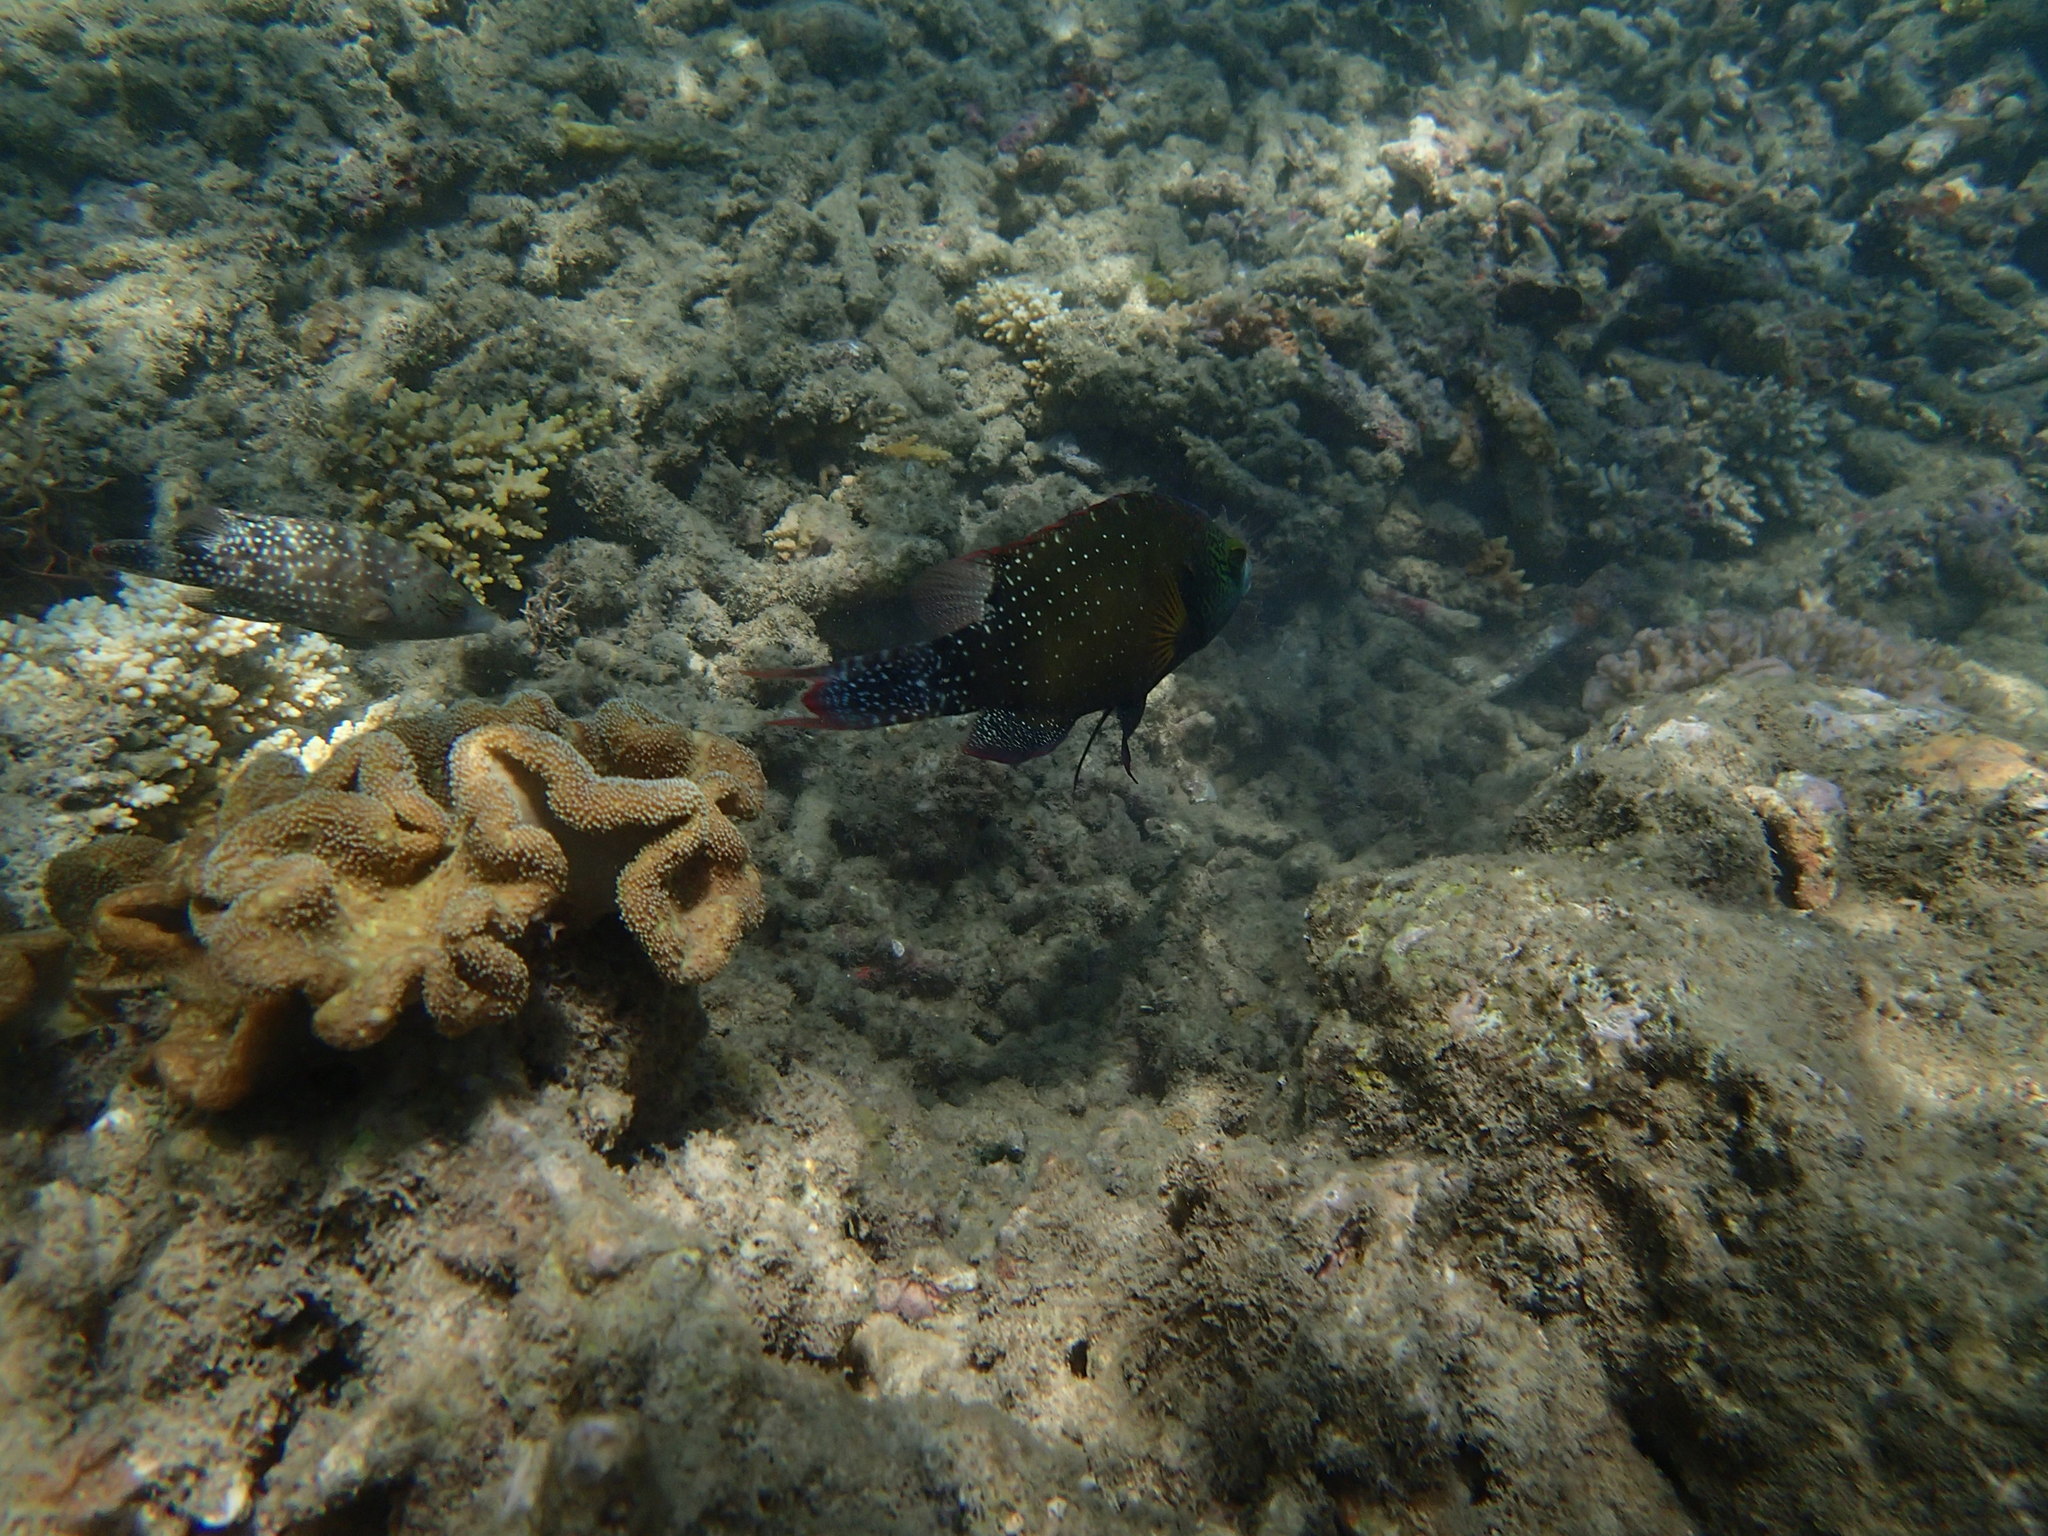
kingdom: Animalia
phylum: Chordata
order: Perciformes
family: Labridae
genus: Cheilinus
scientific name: Cheilinus chlorourus
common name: Floral wrasse
